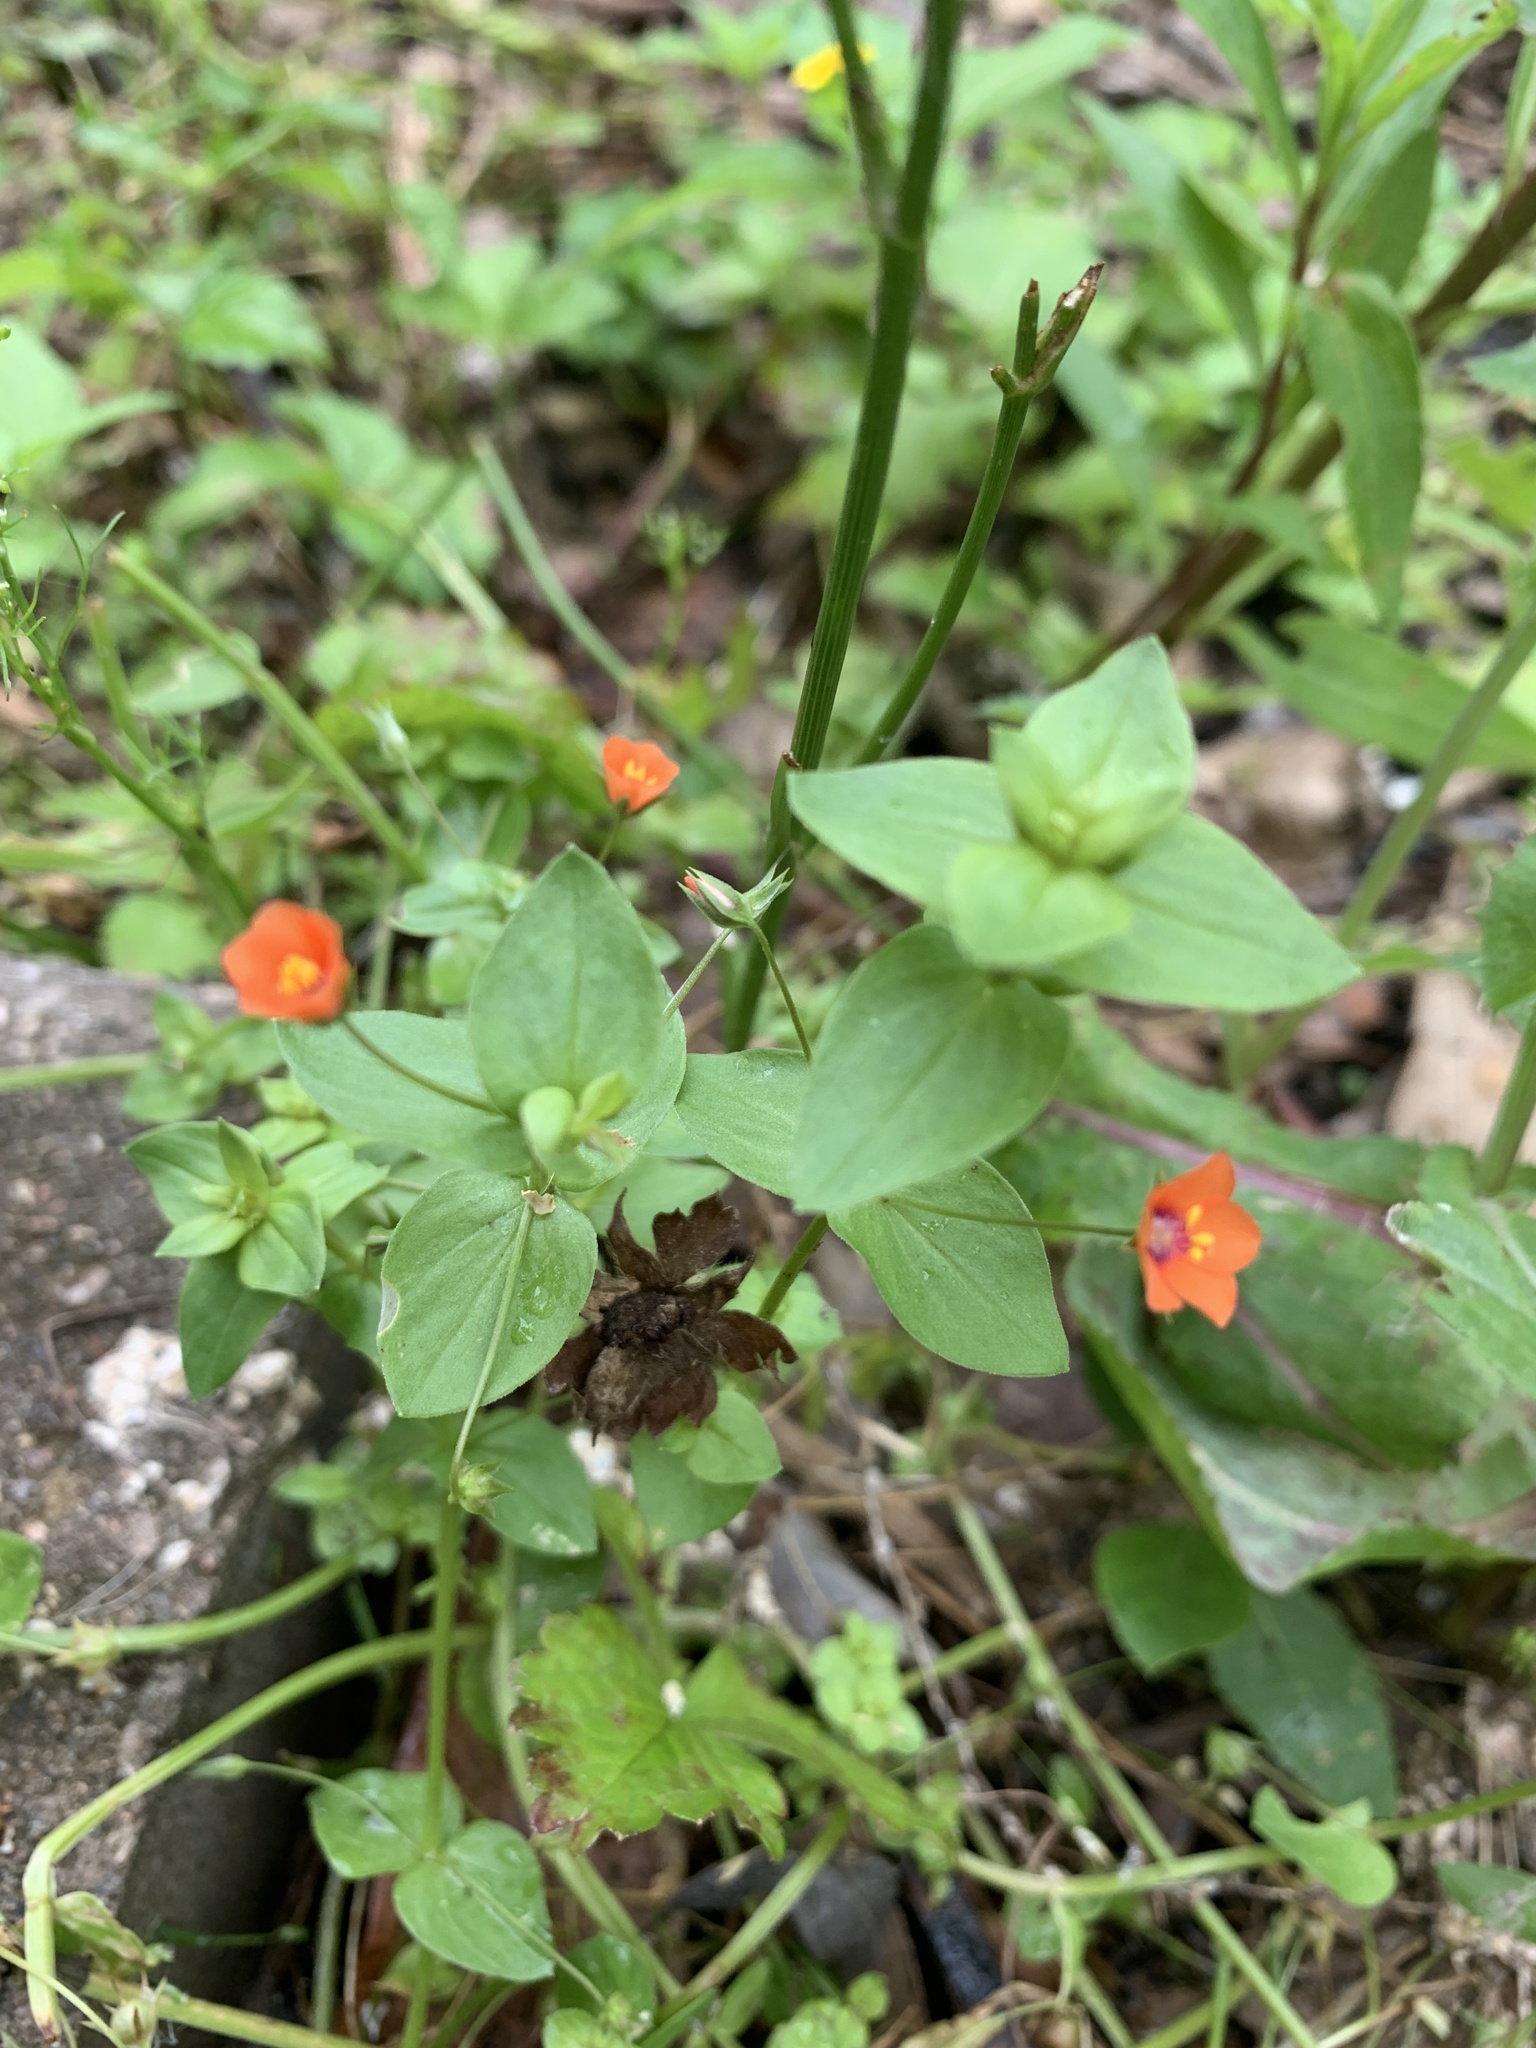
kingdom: Plantae
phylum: Tracheophyta
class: Magnoliopsida
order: Ericales
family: Primulaceae
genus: Lysimachia
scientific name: Lysimachia arvensis
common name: Scarlet pimpernel
